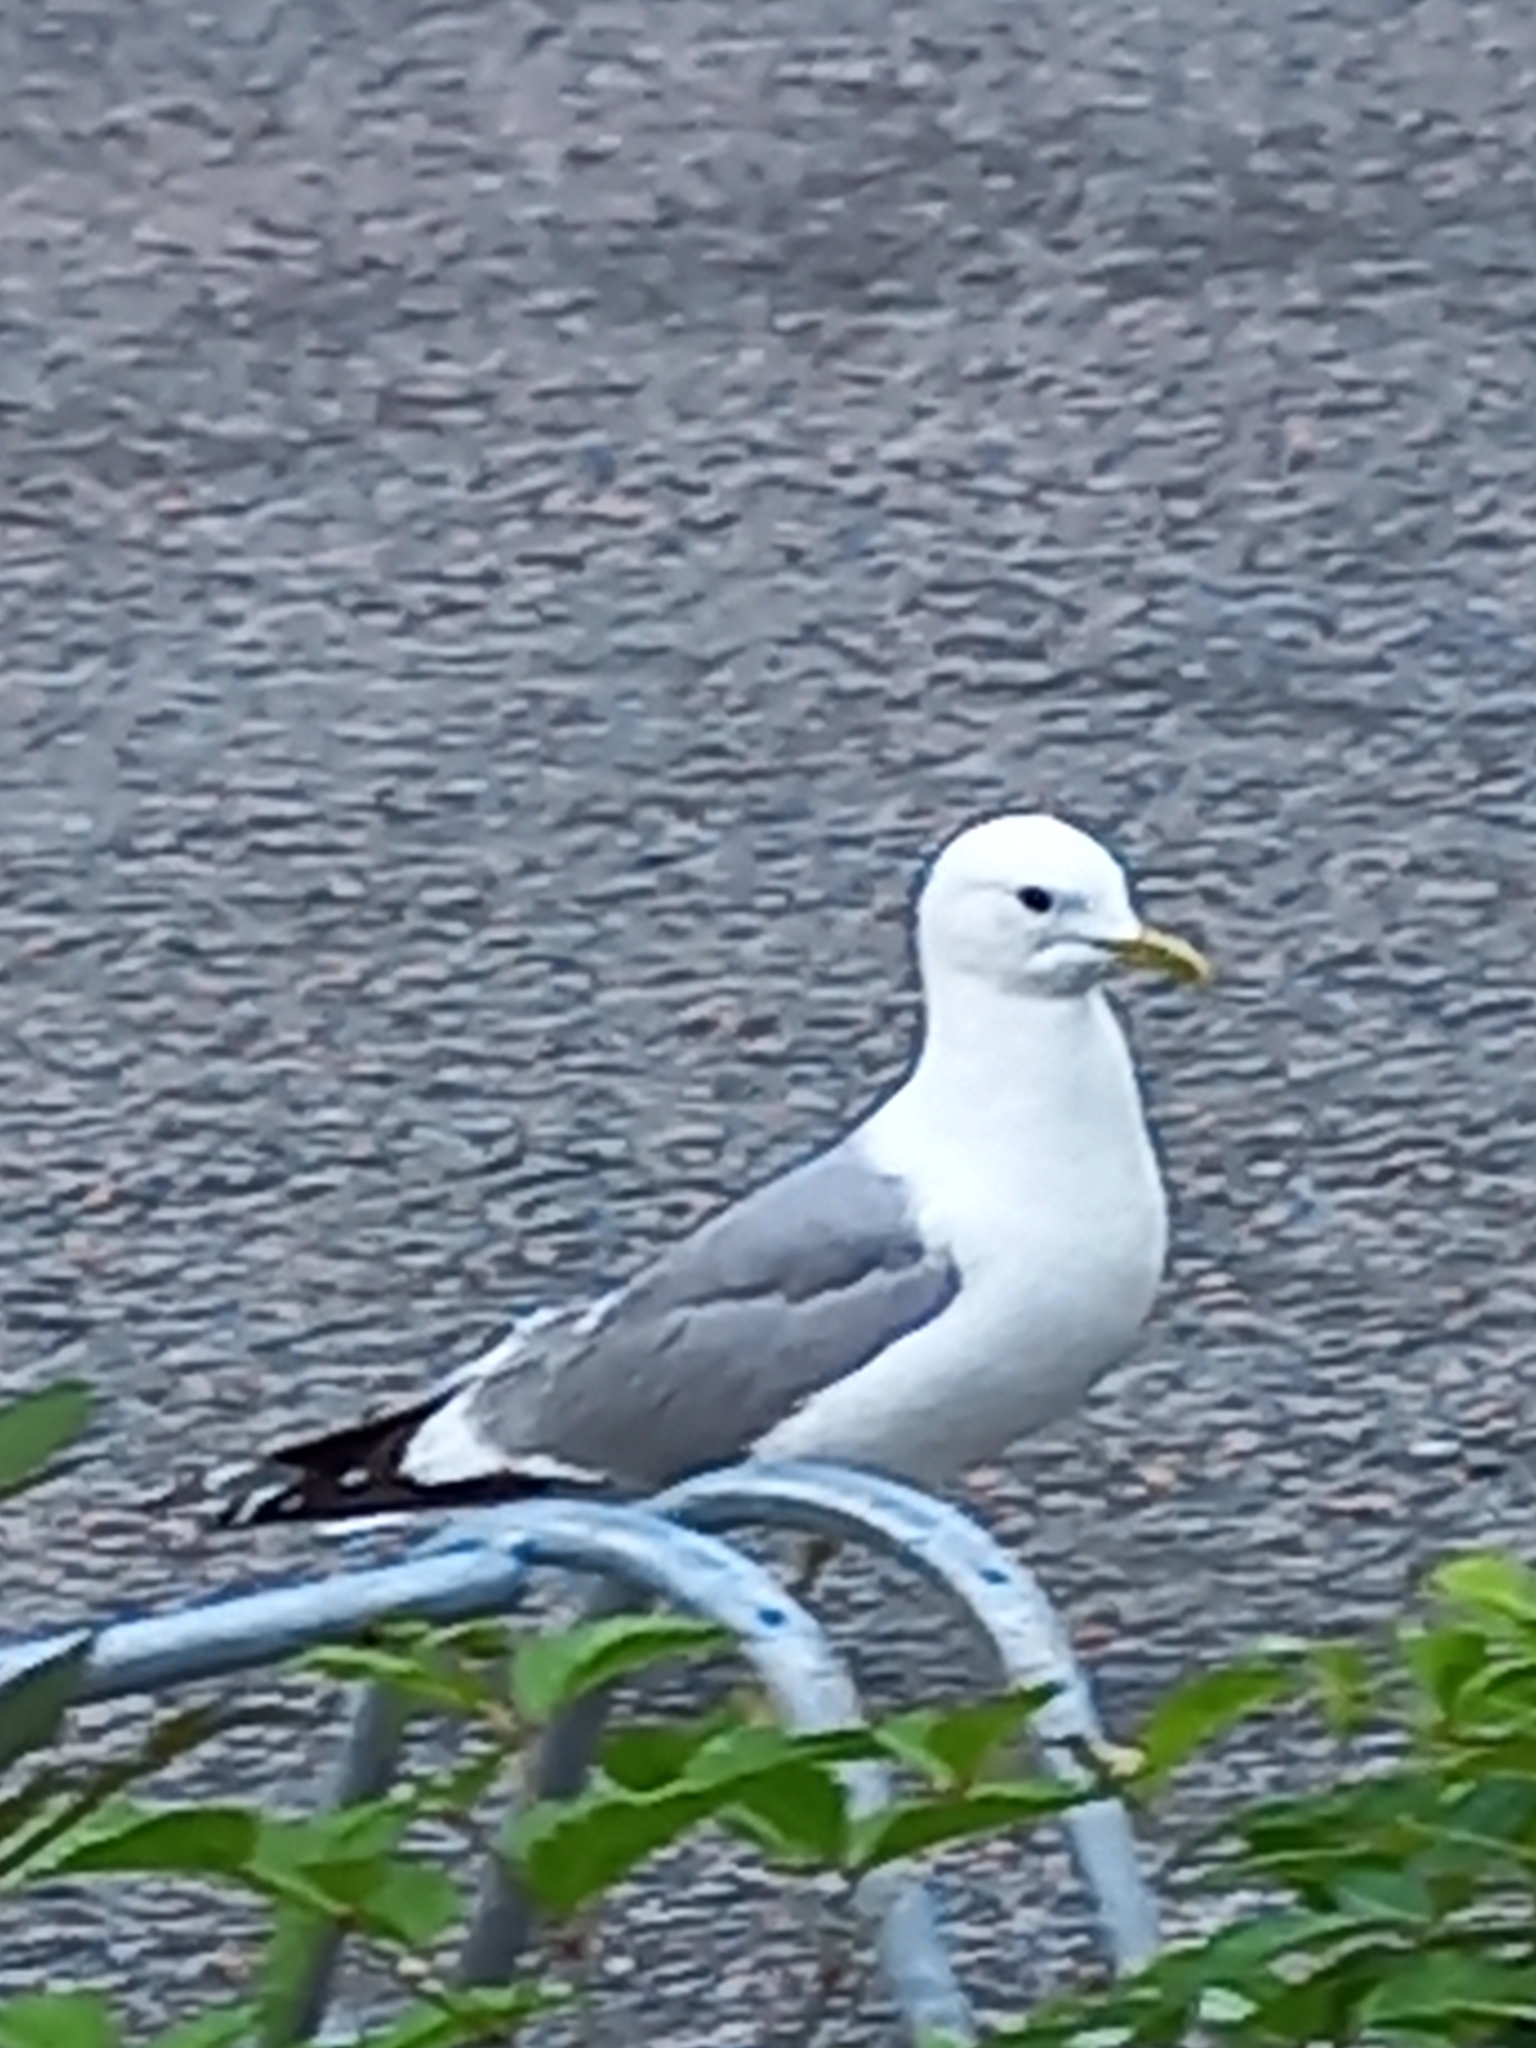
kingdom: Animalia
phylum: Chordata
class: Aves
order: Charadriiformes
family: Laridae
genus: Larus
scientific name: Larus canus
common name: Mew gull
